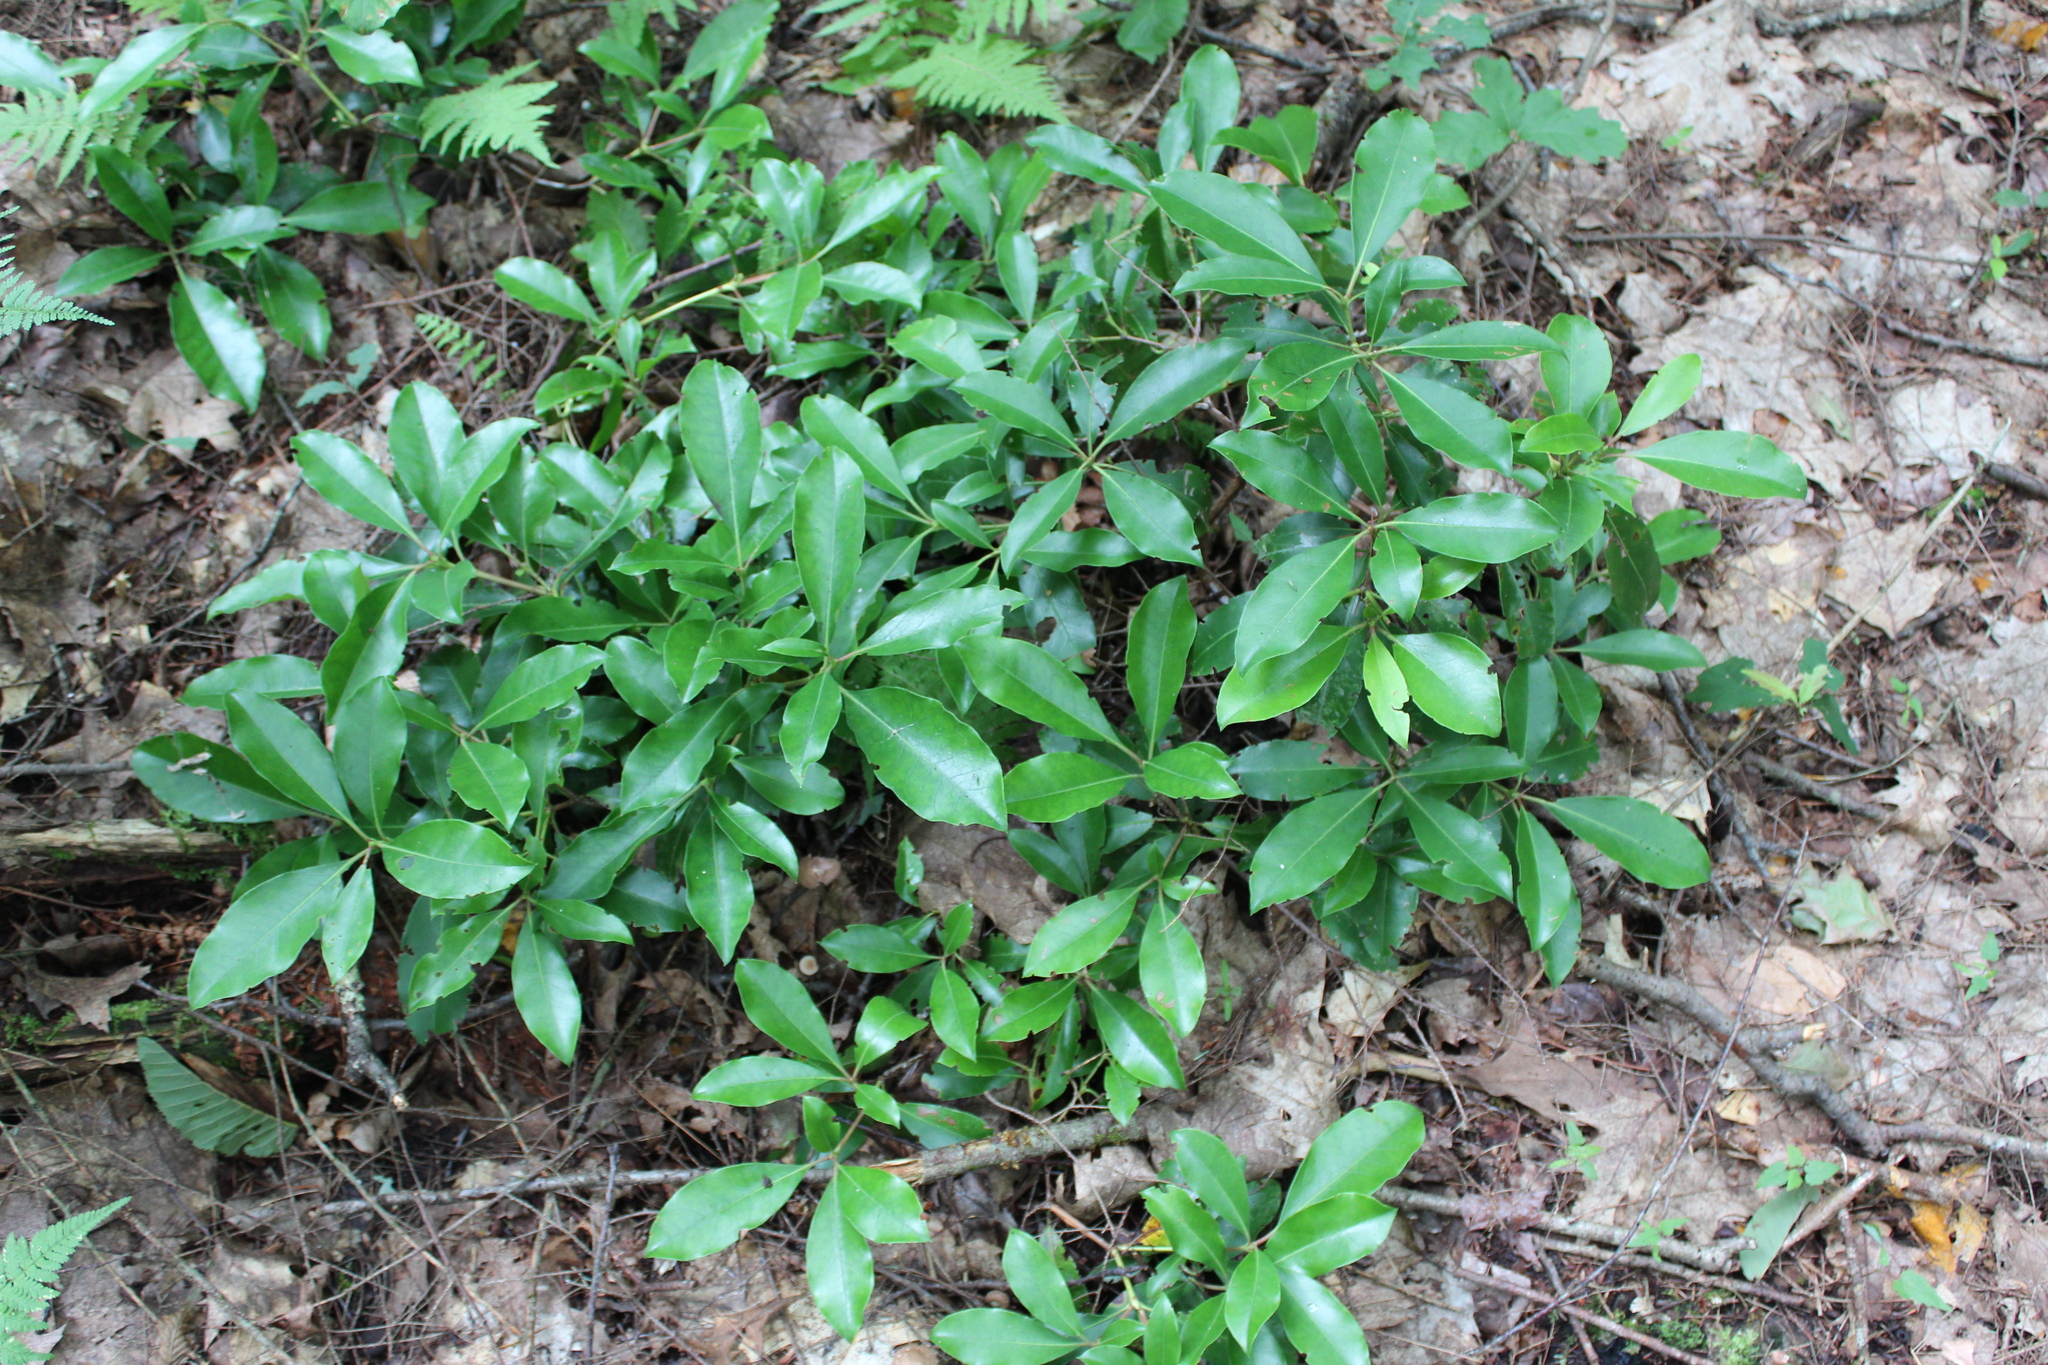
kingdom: Plantae
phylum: Tracheophyta
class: Magnoliopsida
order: Ericales
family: Ericaceae
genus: Kalmia
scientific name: Kalmia latifolia
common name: Mountain-laurel
